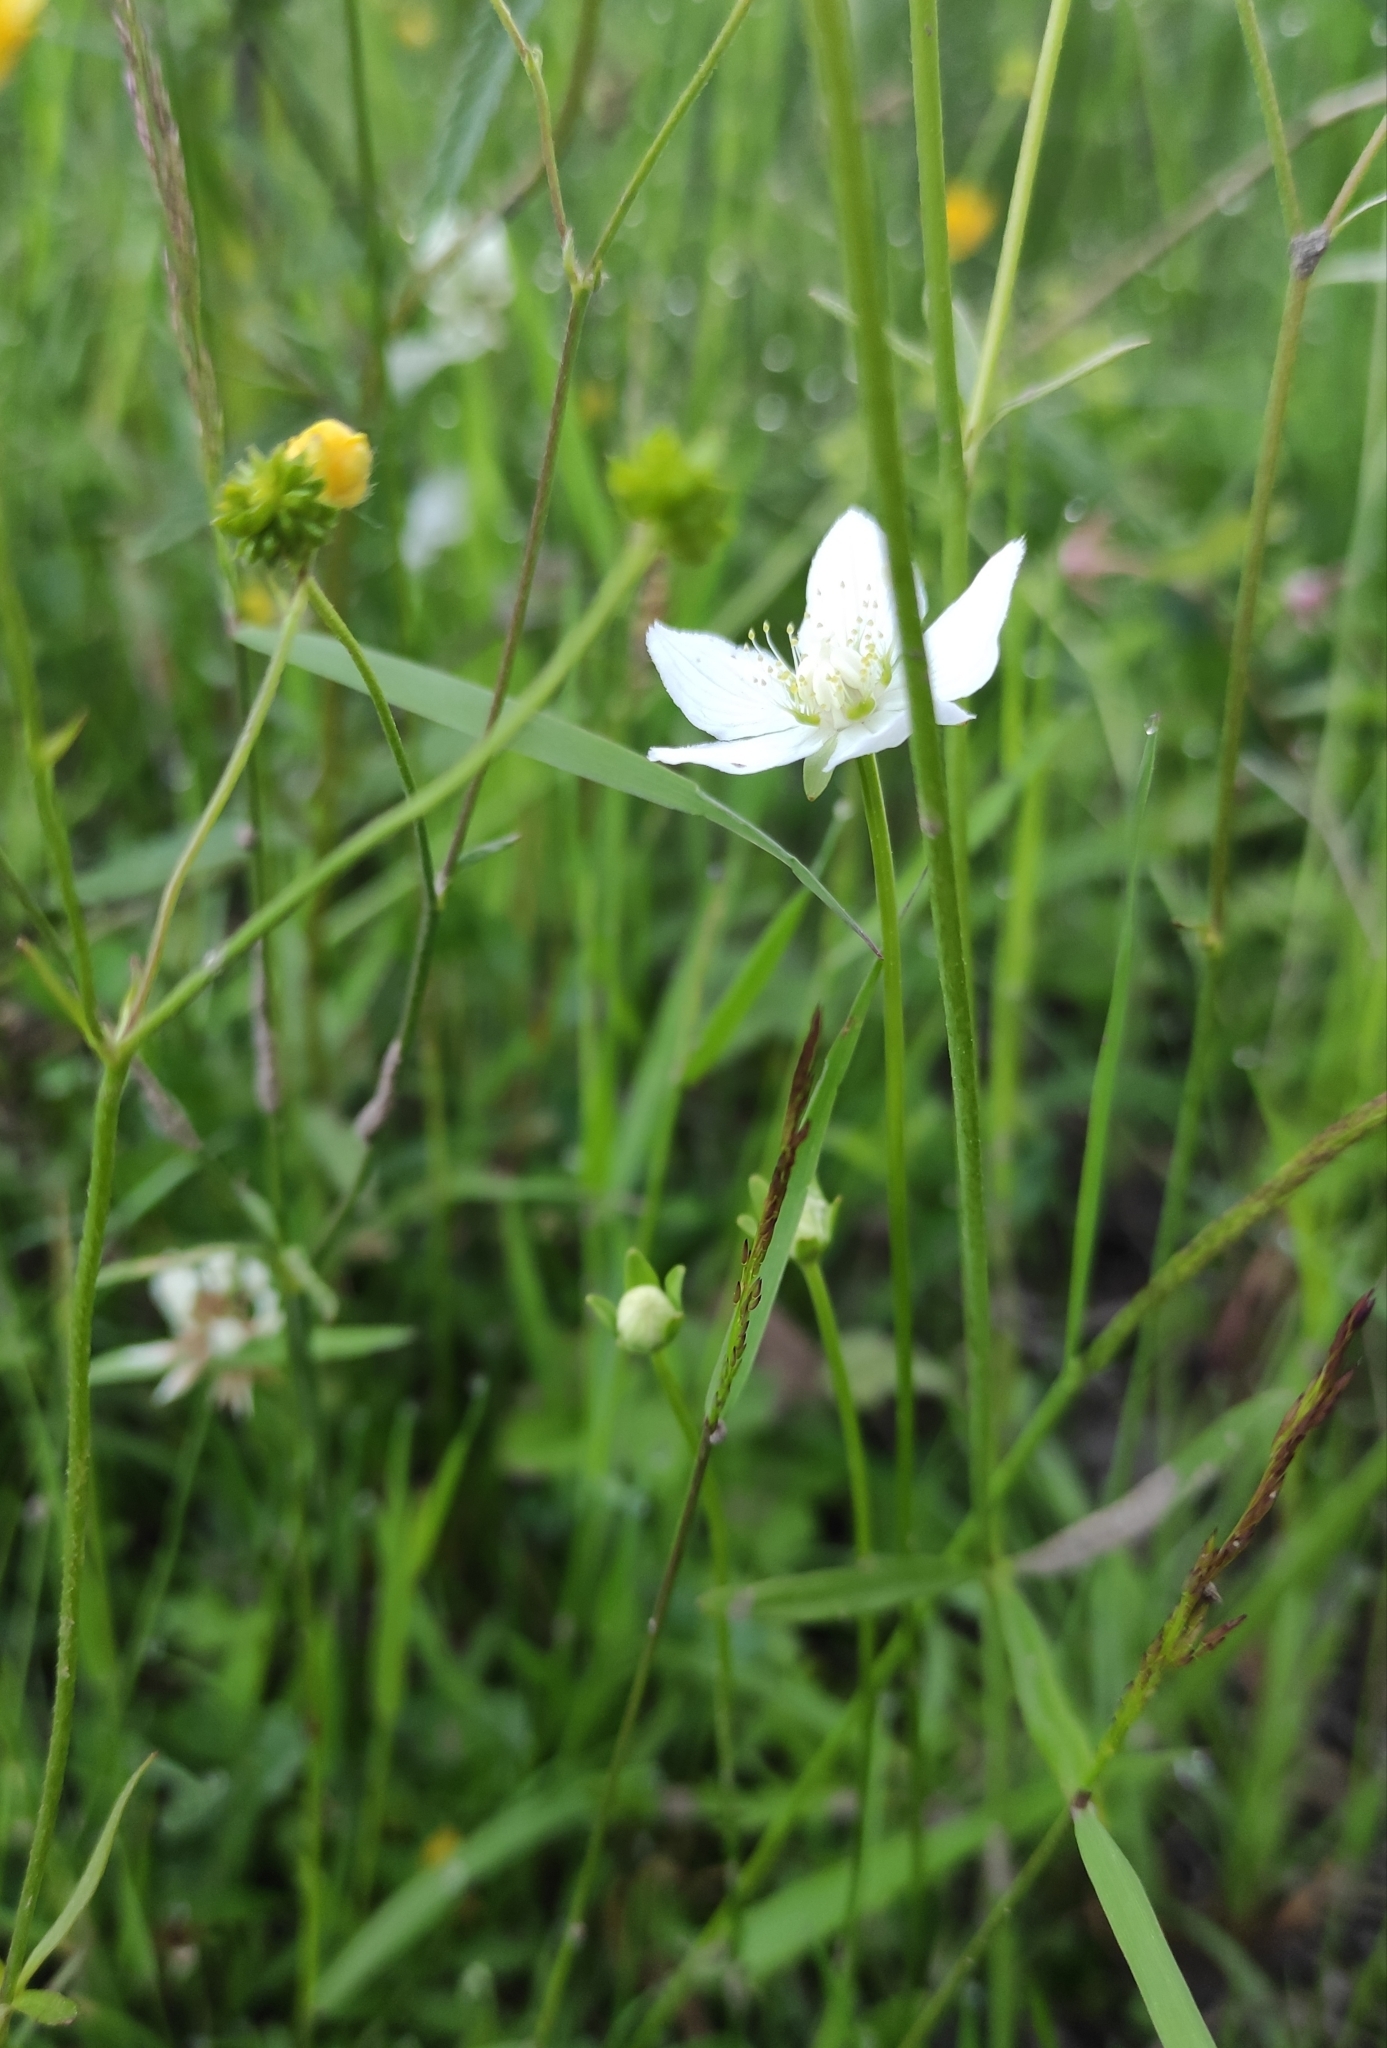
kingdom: Plantae
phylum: Tracheophyta
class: Magnoliopsida
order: Celastrales
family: Parnassiaceae
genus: Parnassia
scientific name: Parnassia palustris
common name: Grass-of-parnassus
